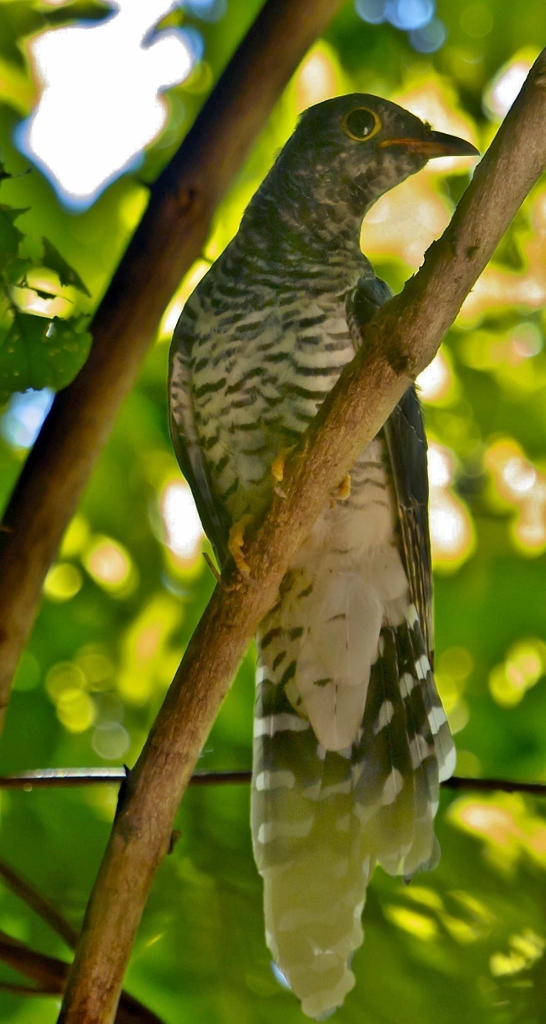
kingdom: Animalia
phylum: Chordata
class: Aves
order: Cuculiformes
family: Cuculidae
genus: Cuculus
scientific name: Cuculus solitarius
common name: Red-chested cuckoo
